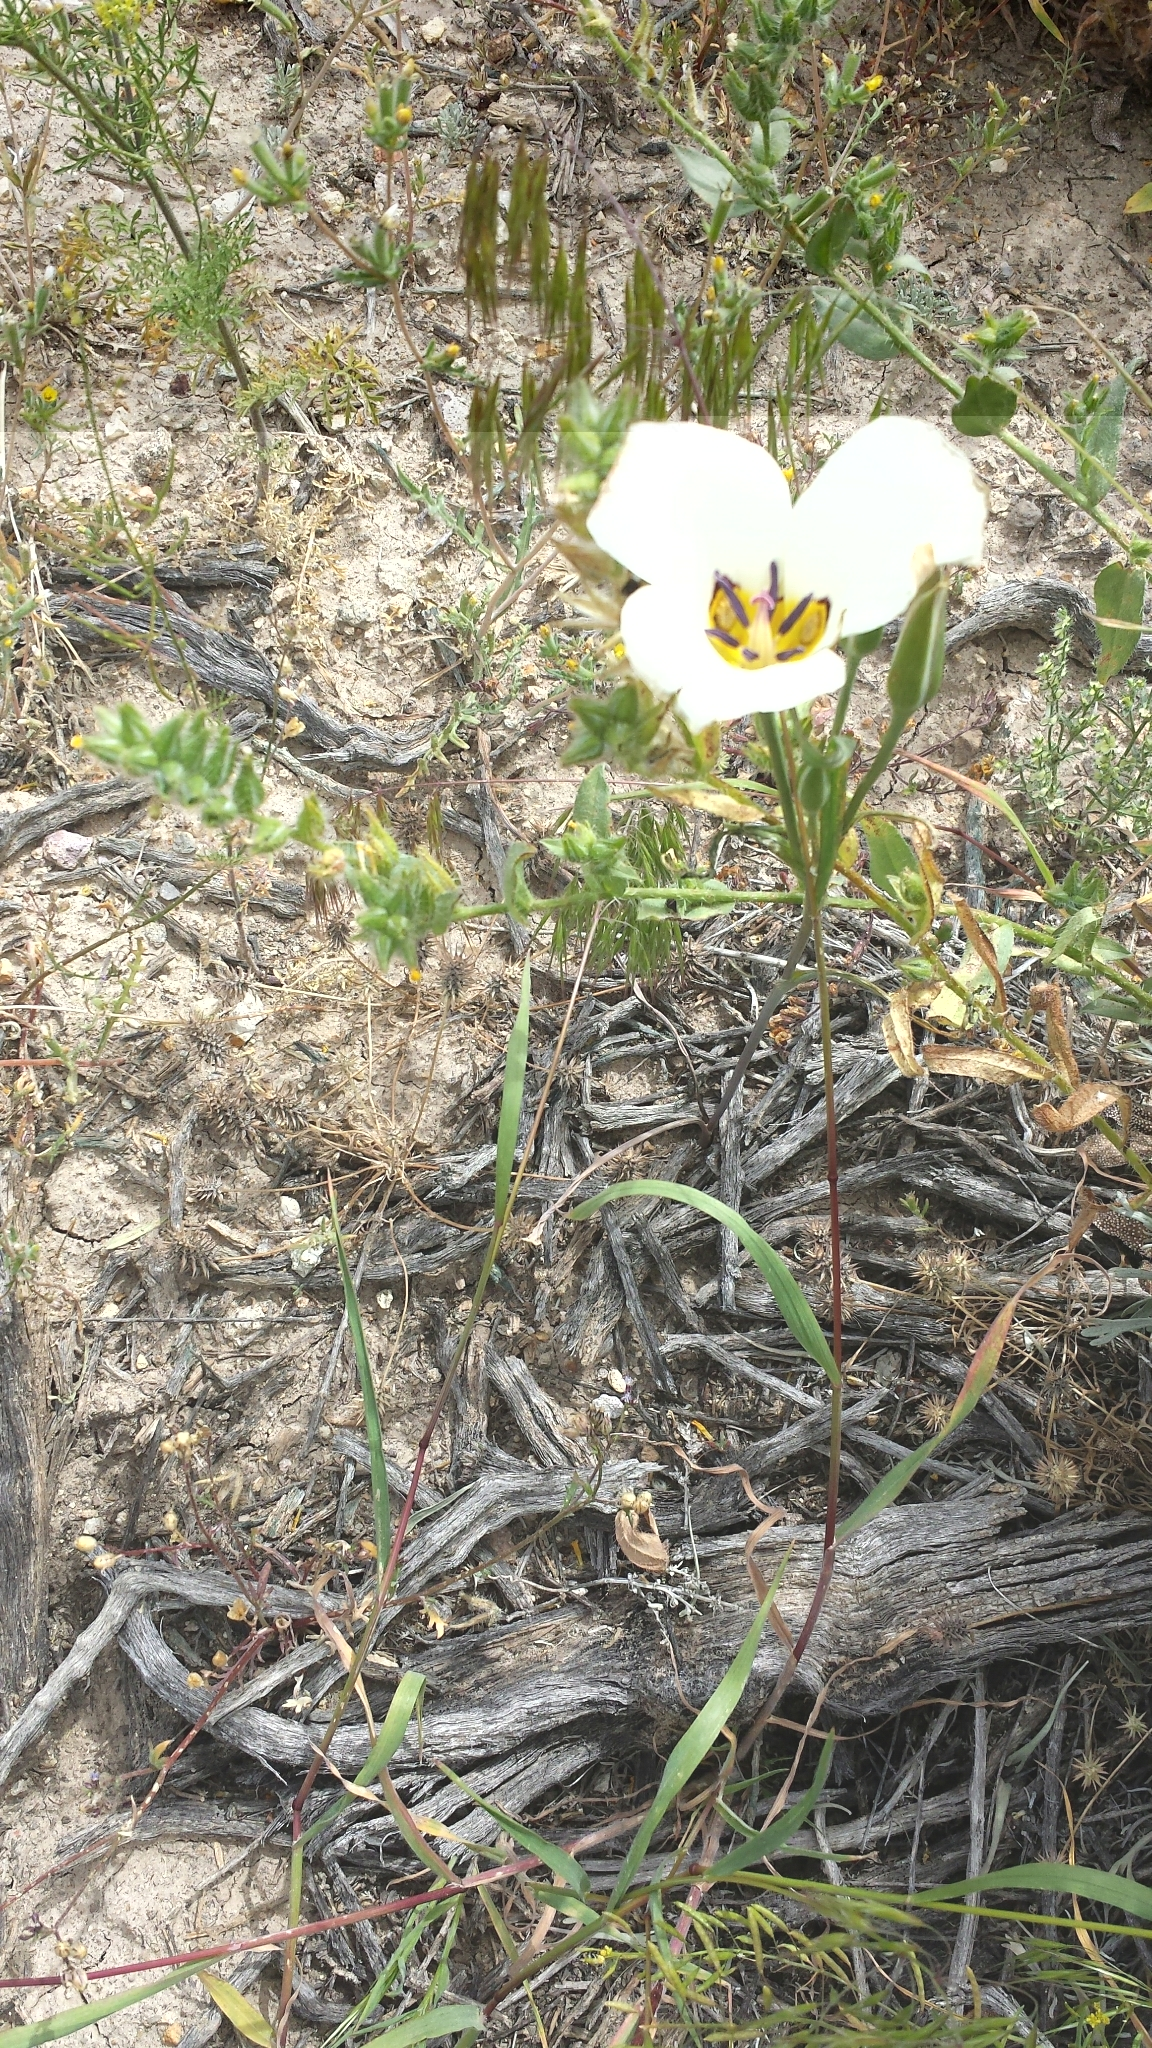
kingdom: Plantae
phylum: Tracheophyta
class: Liliopsida
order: Liliales
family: Liliaceae
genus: Calochortus
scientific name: Calochortus bruneaunis
